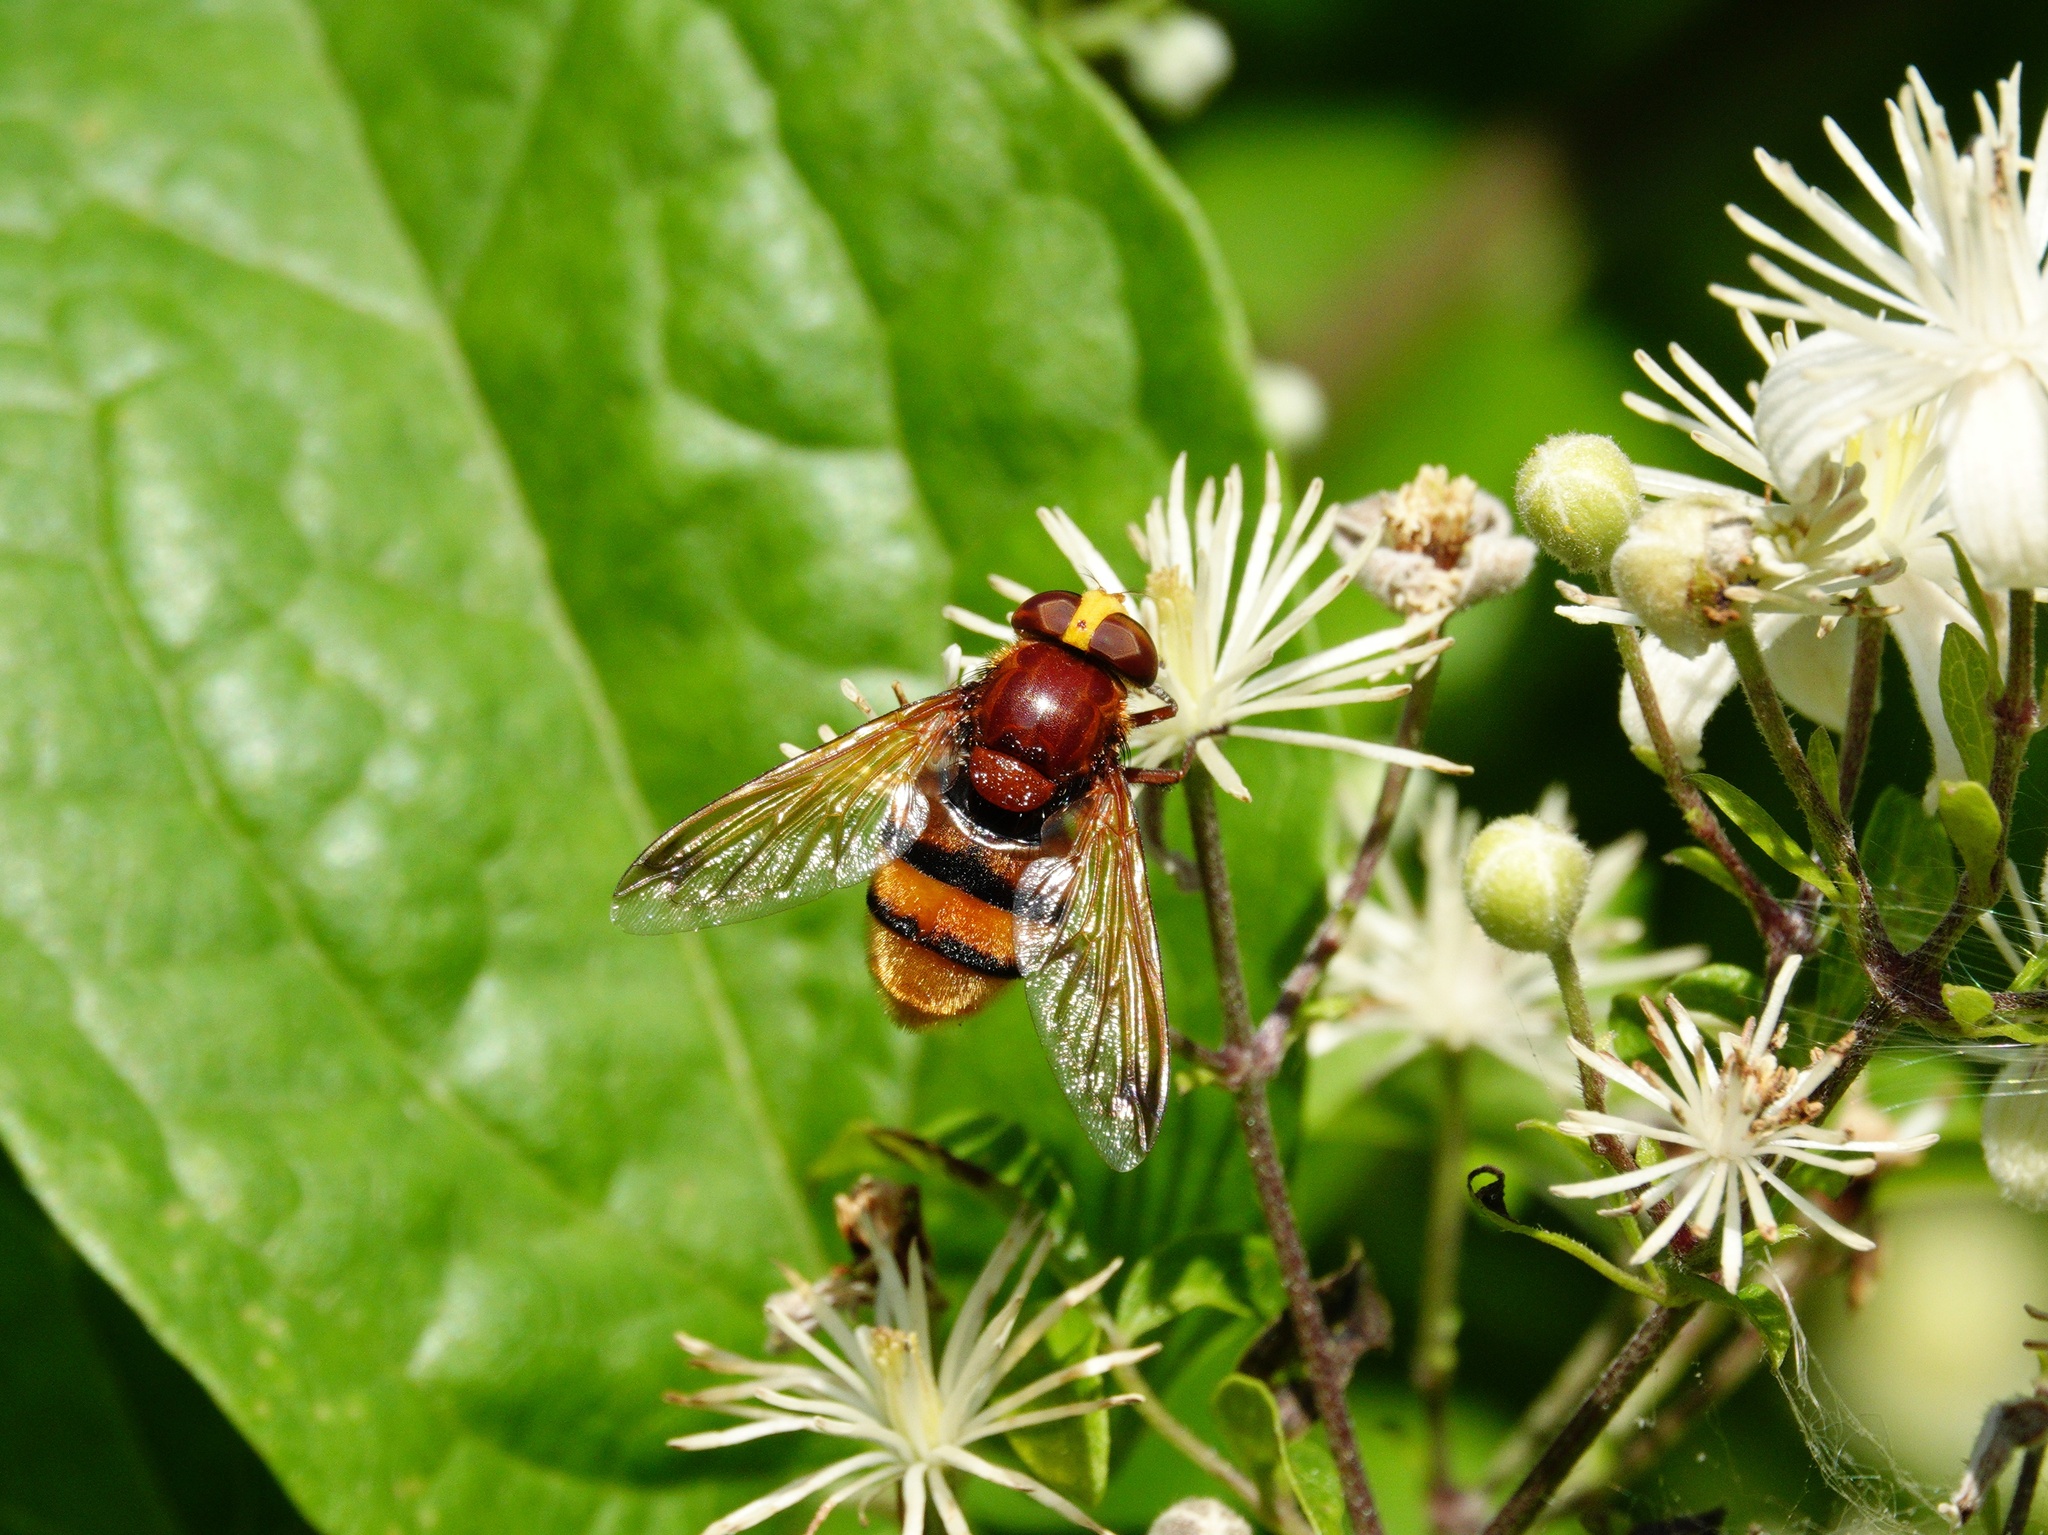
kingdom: Animalia
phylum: Arthropoda
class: Insecta
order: Diptera
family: Syrphidae
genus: Volucella
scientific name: Volucella zonaria
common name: Hornet hoverfly
